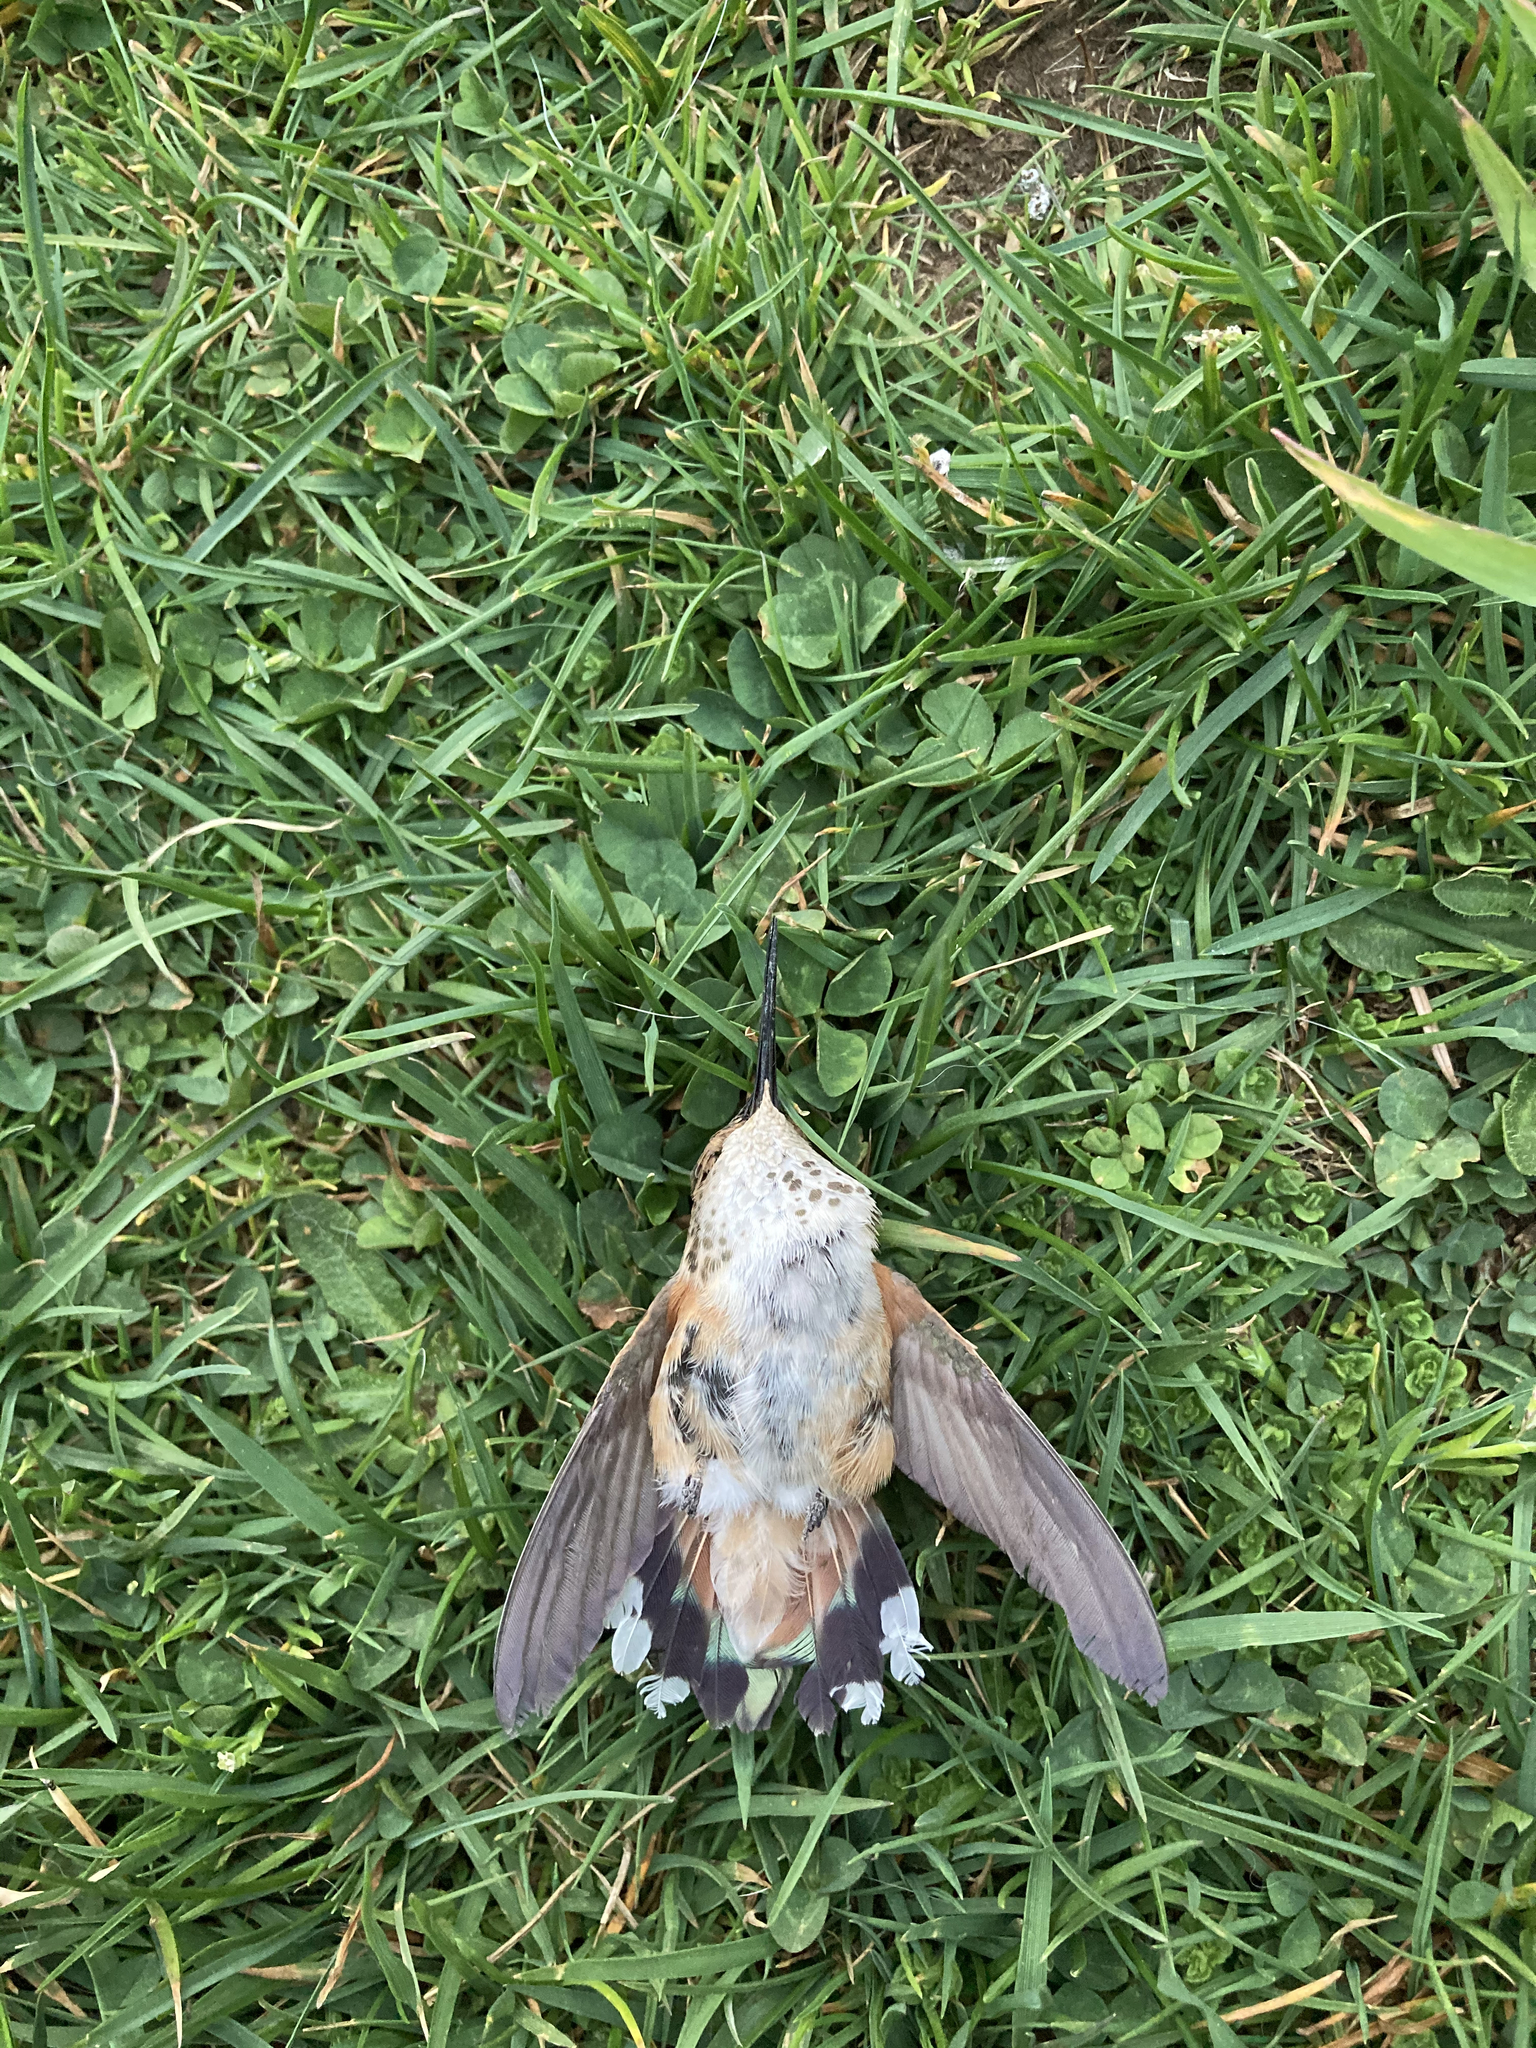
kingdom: Animalia
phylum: Chordata
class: Aves
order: Apodiformes
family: Trochilidae
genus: Selasphorus
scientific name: Selasphorus rufus
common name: Rufous hummingbird
